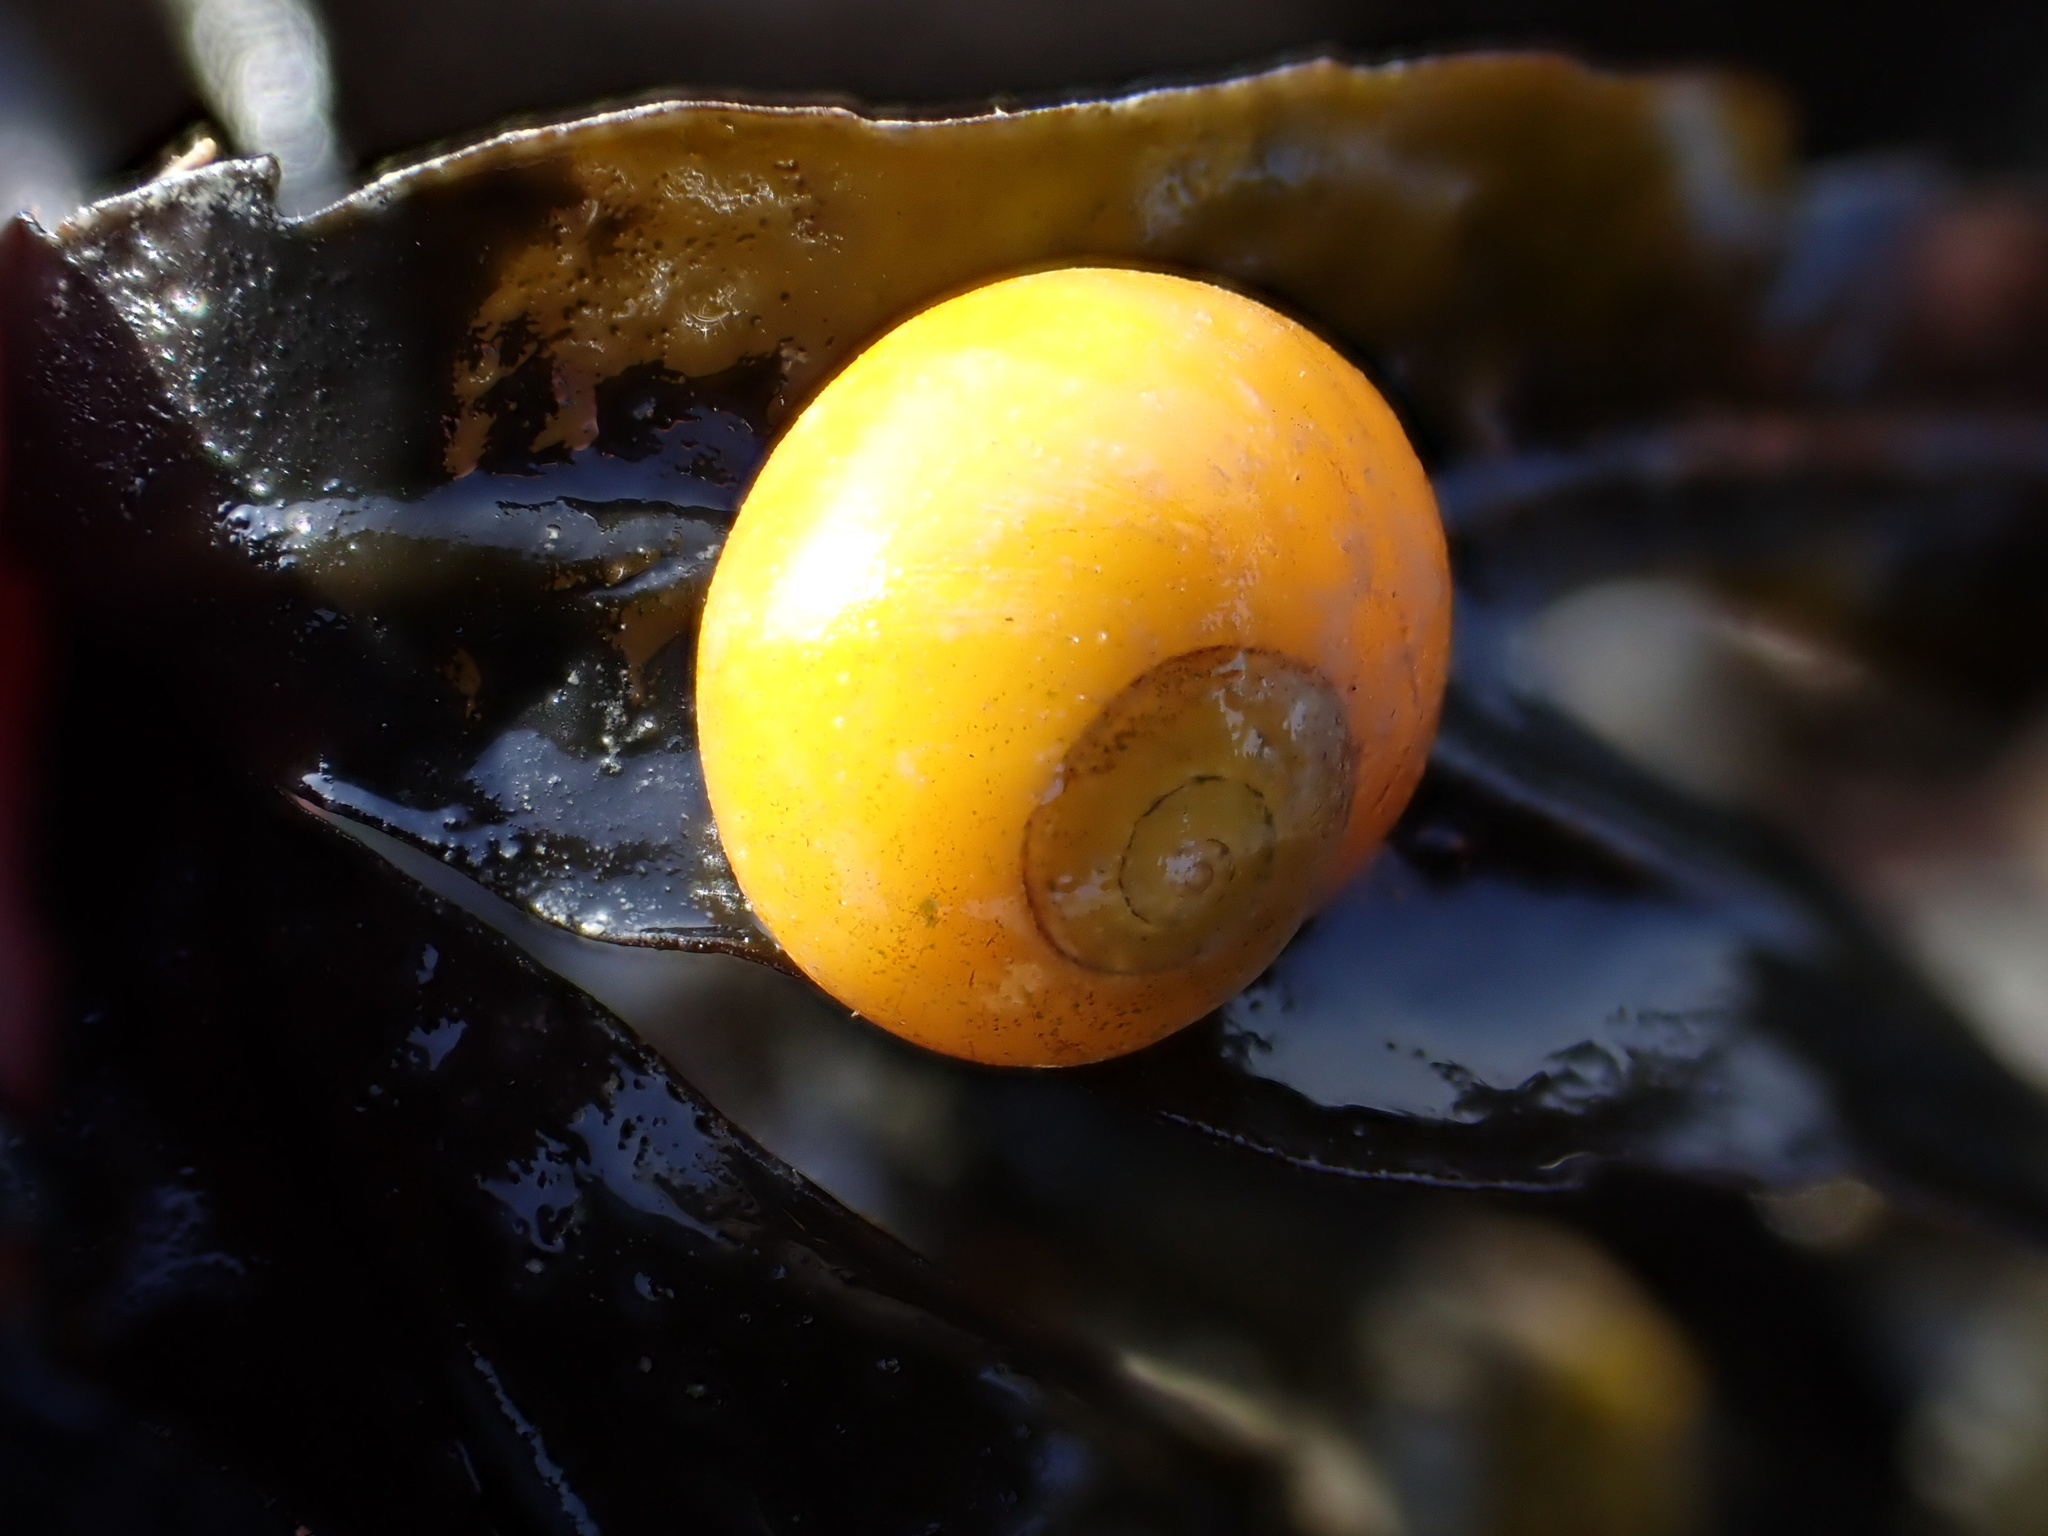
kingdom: Animalia
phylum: Mollusca
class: Gastropoda
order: Littorinimorpha
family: Littorinidae
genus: Littorina
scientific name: Littorina obtusata
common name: Flat periwinkle
